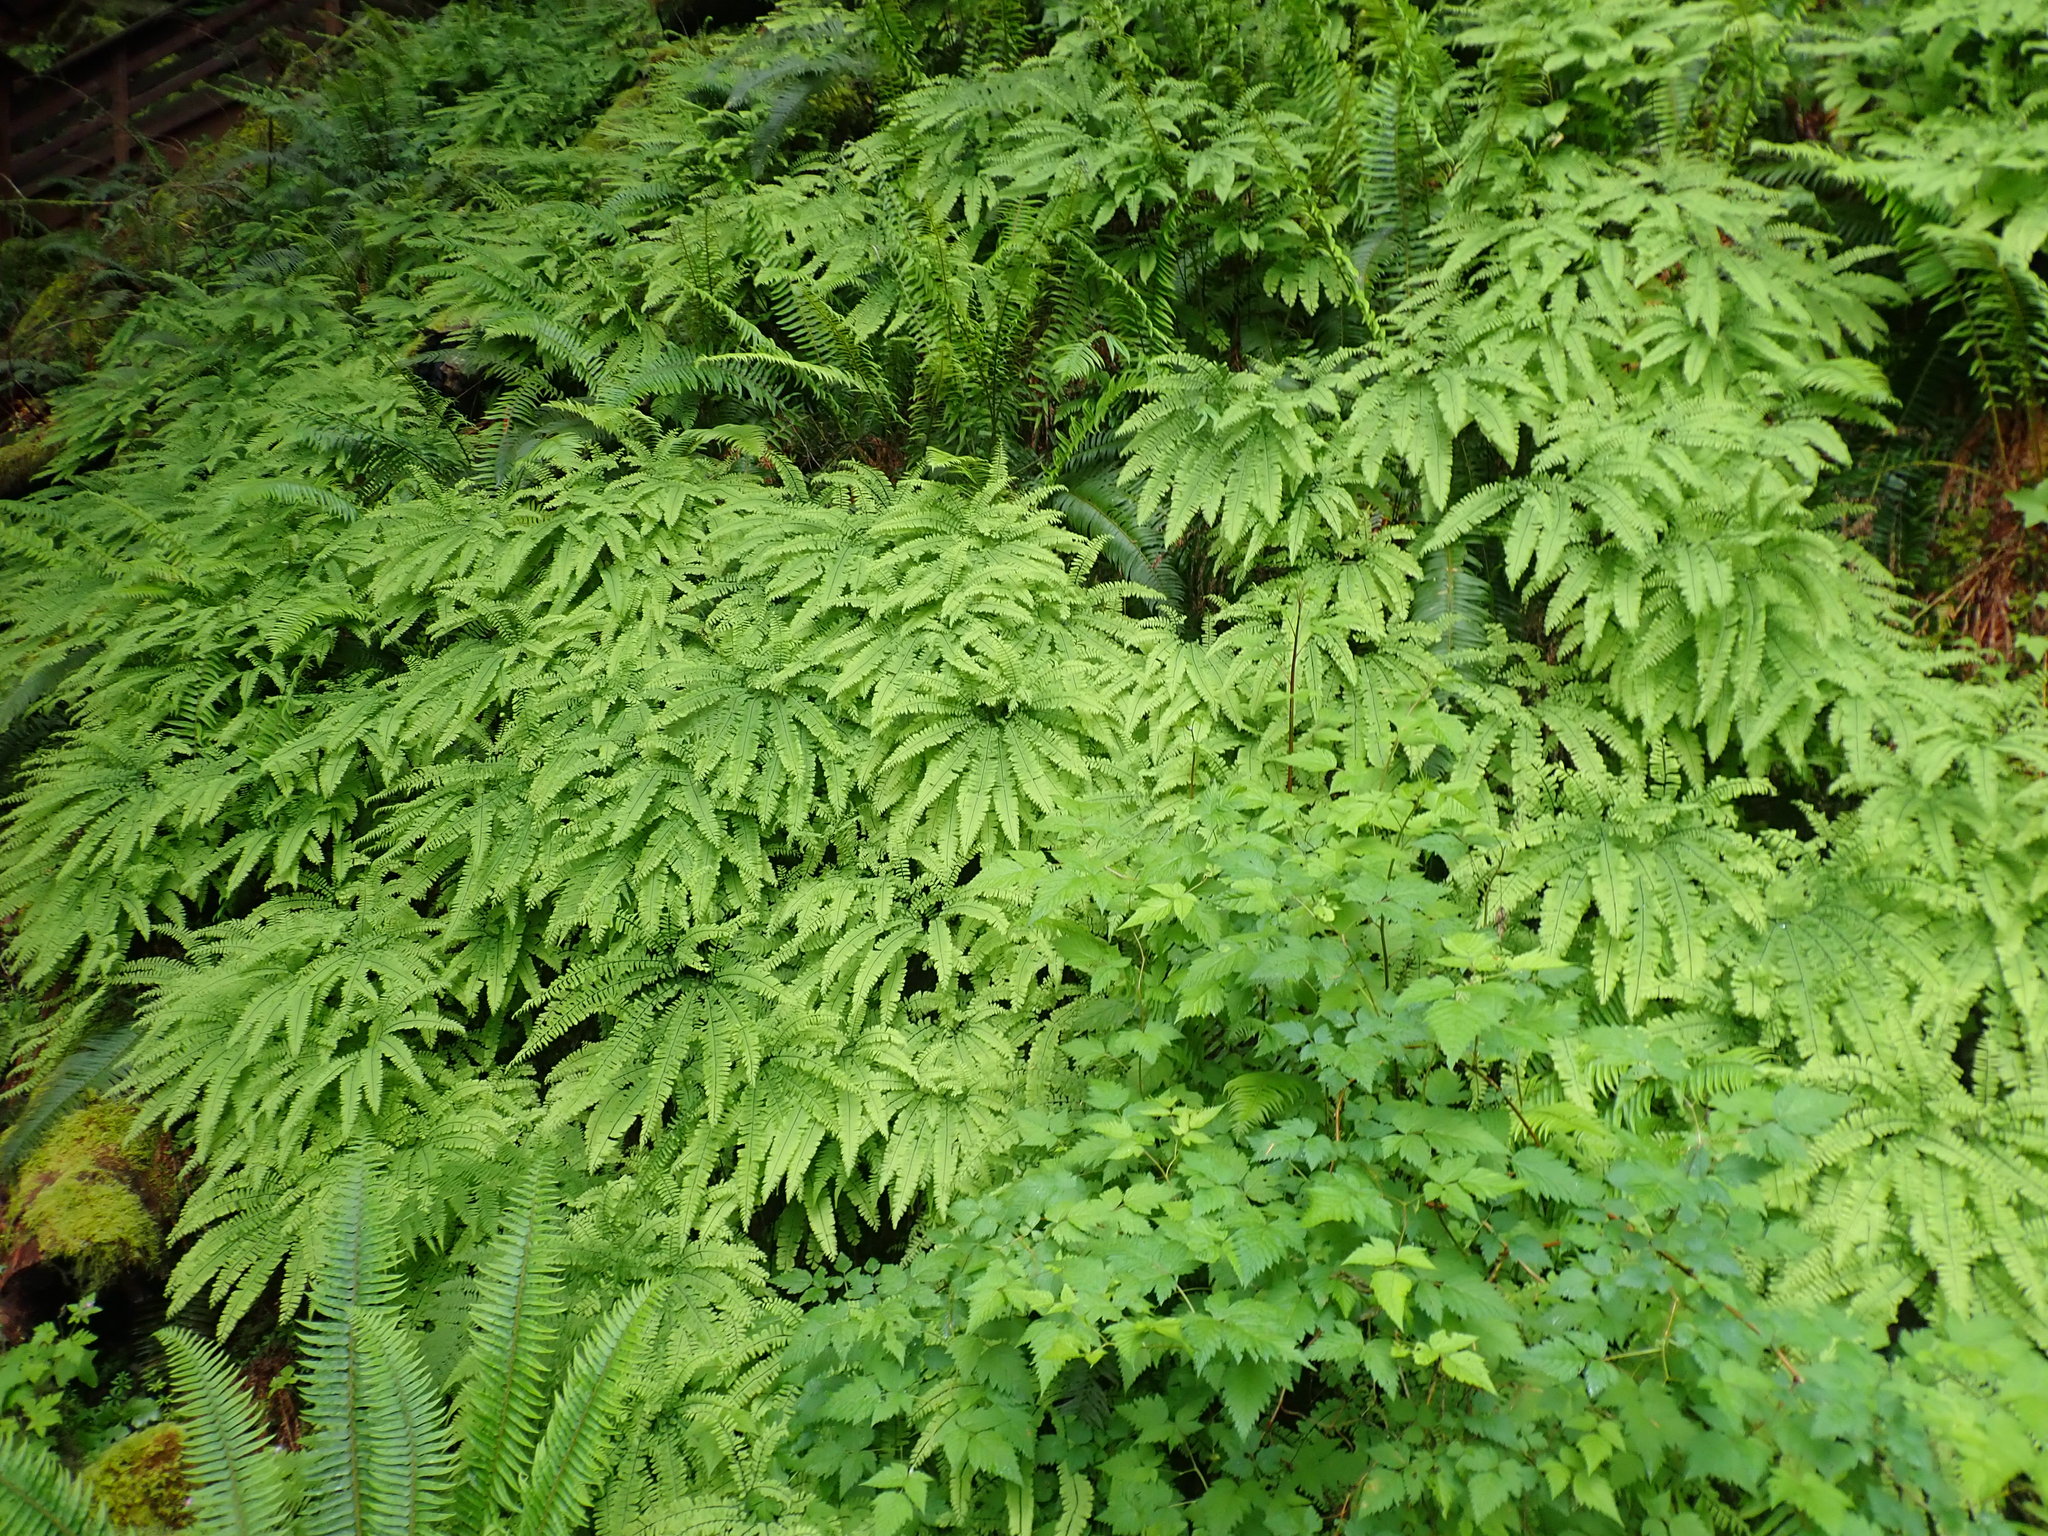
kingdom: Plantae
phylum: Tracheophyta
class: Polypodiopsida
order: Polypodiales
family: Pteridaceae
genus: Adiantum
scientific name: Adiantum aleuticum
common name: Aleutian maidenhair fern
